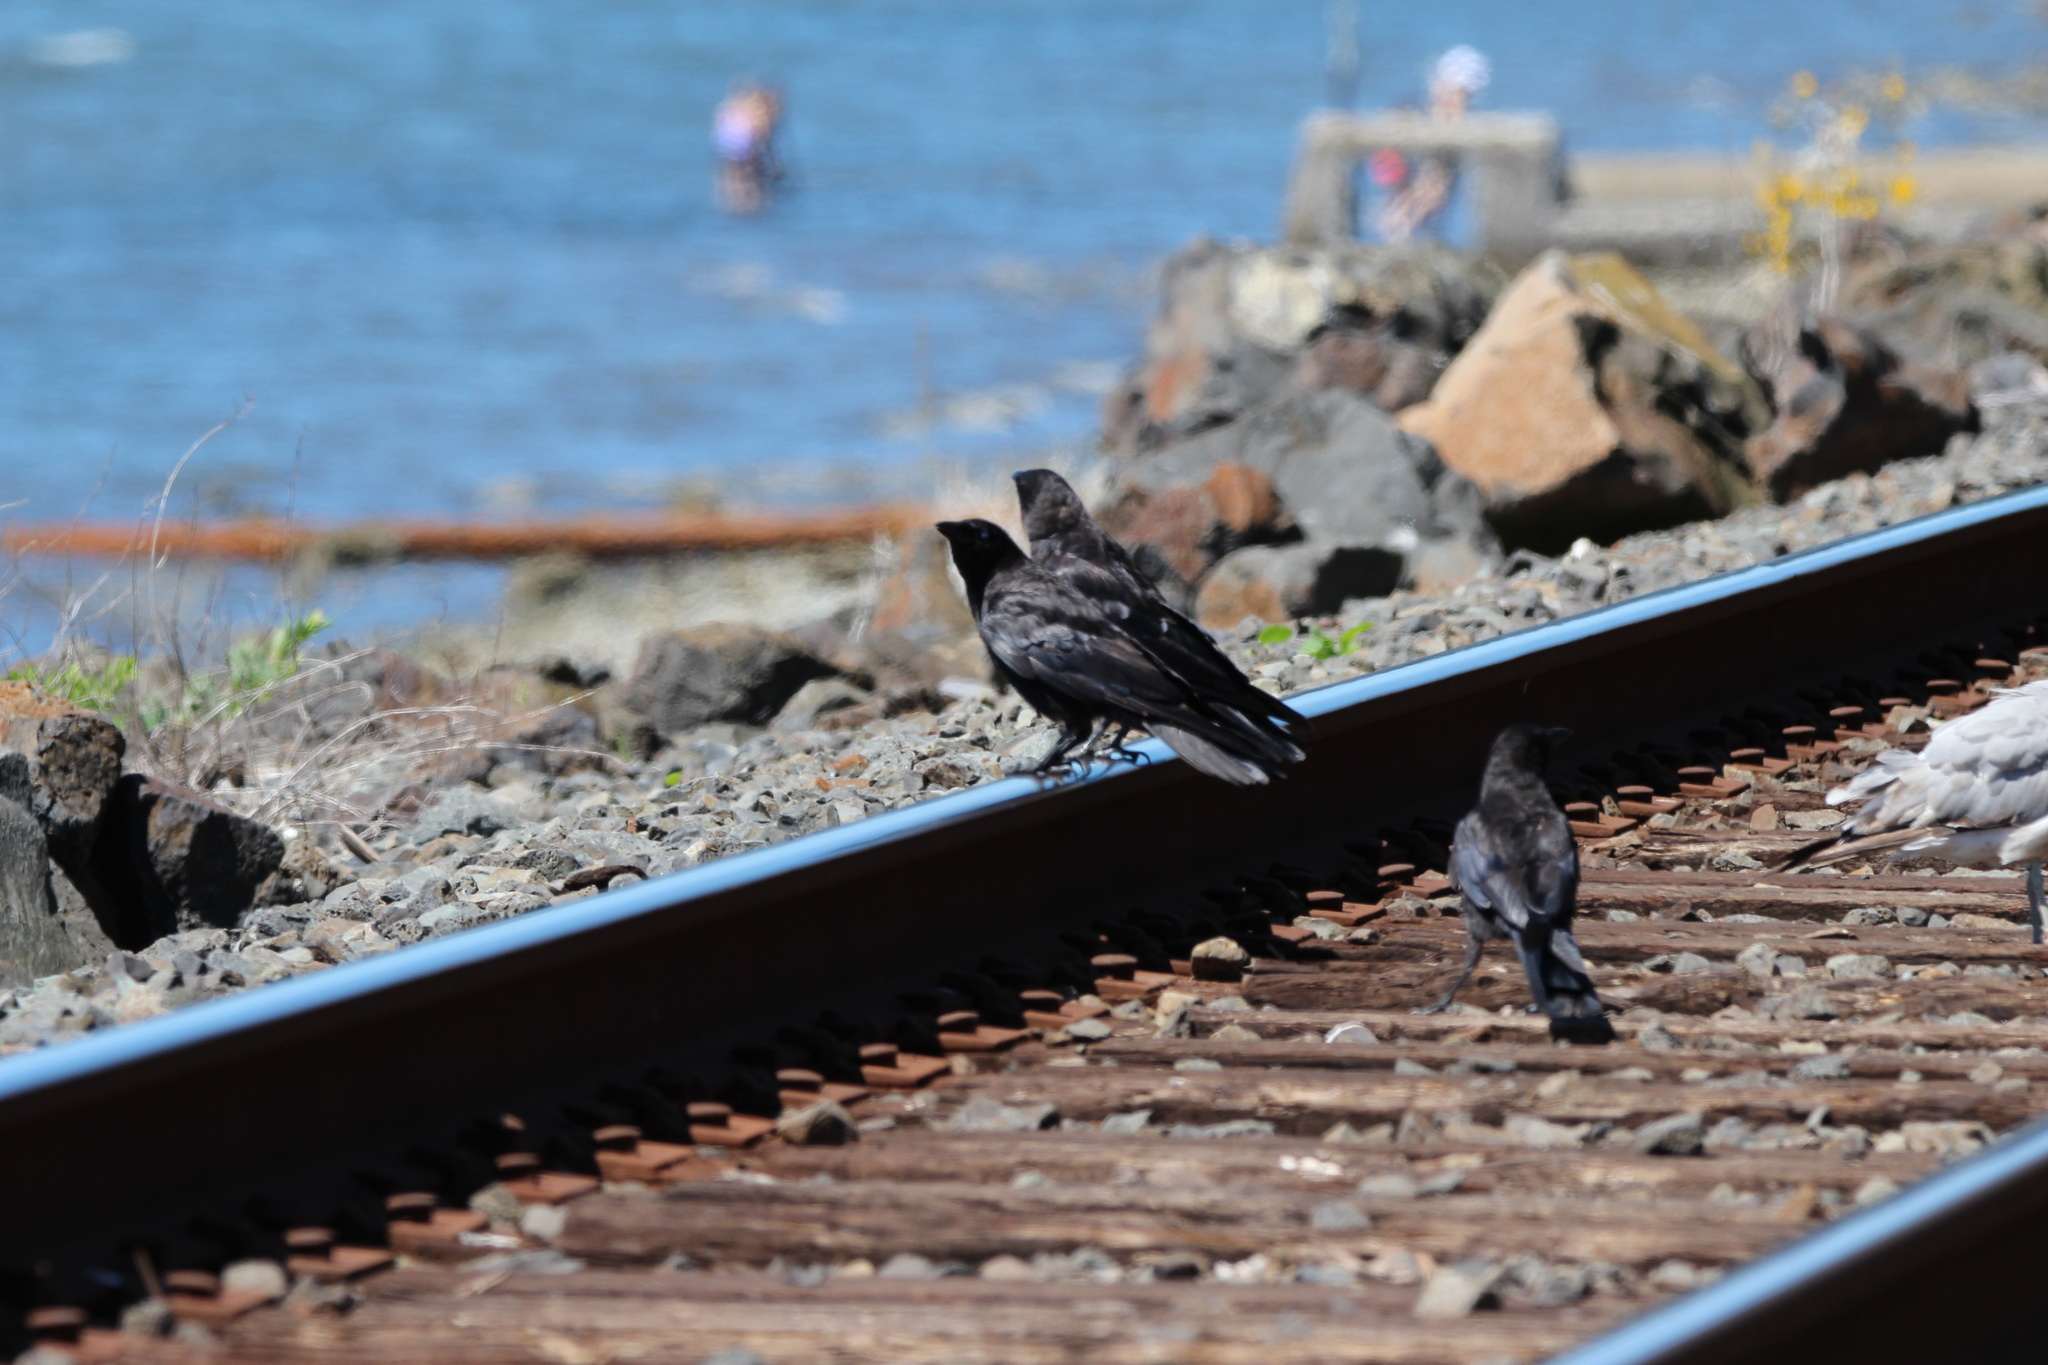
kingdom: Animalia
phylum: Chordata
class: Aves
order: Passeriformes
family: Corvidae
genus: Corvus
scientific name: Corvus brachyrhynchos
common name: American crow
